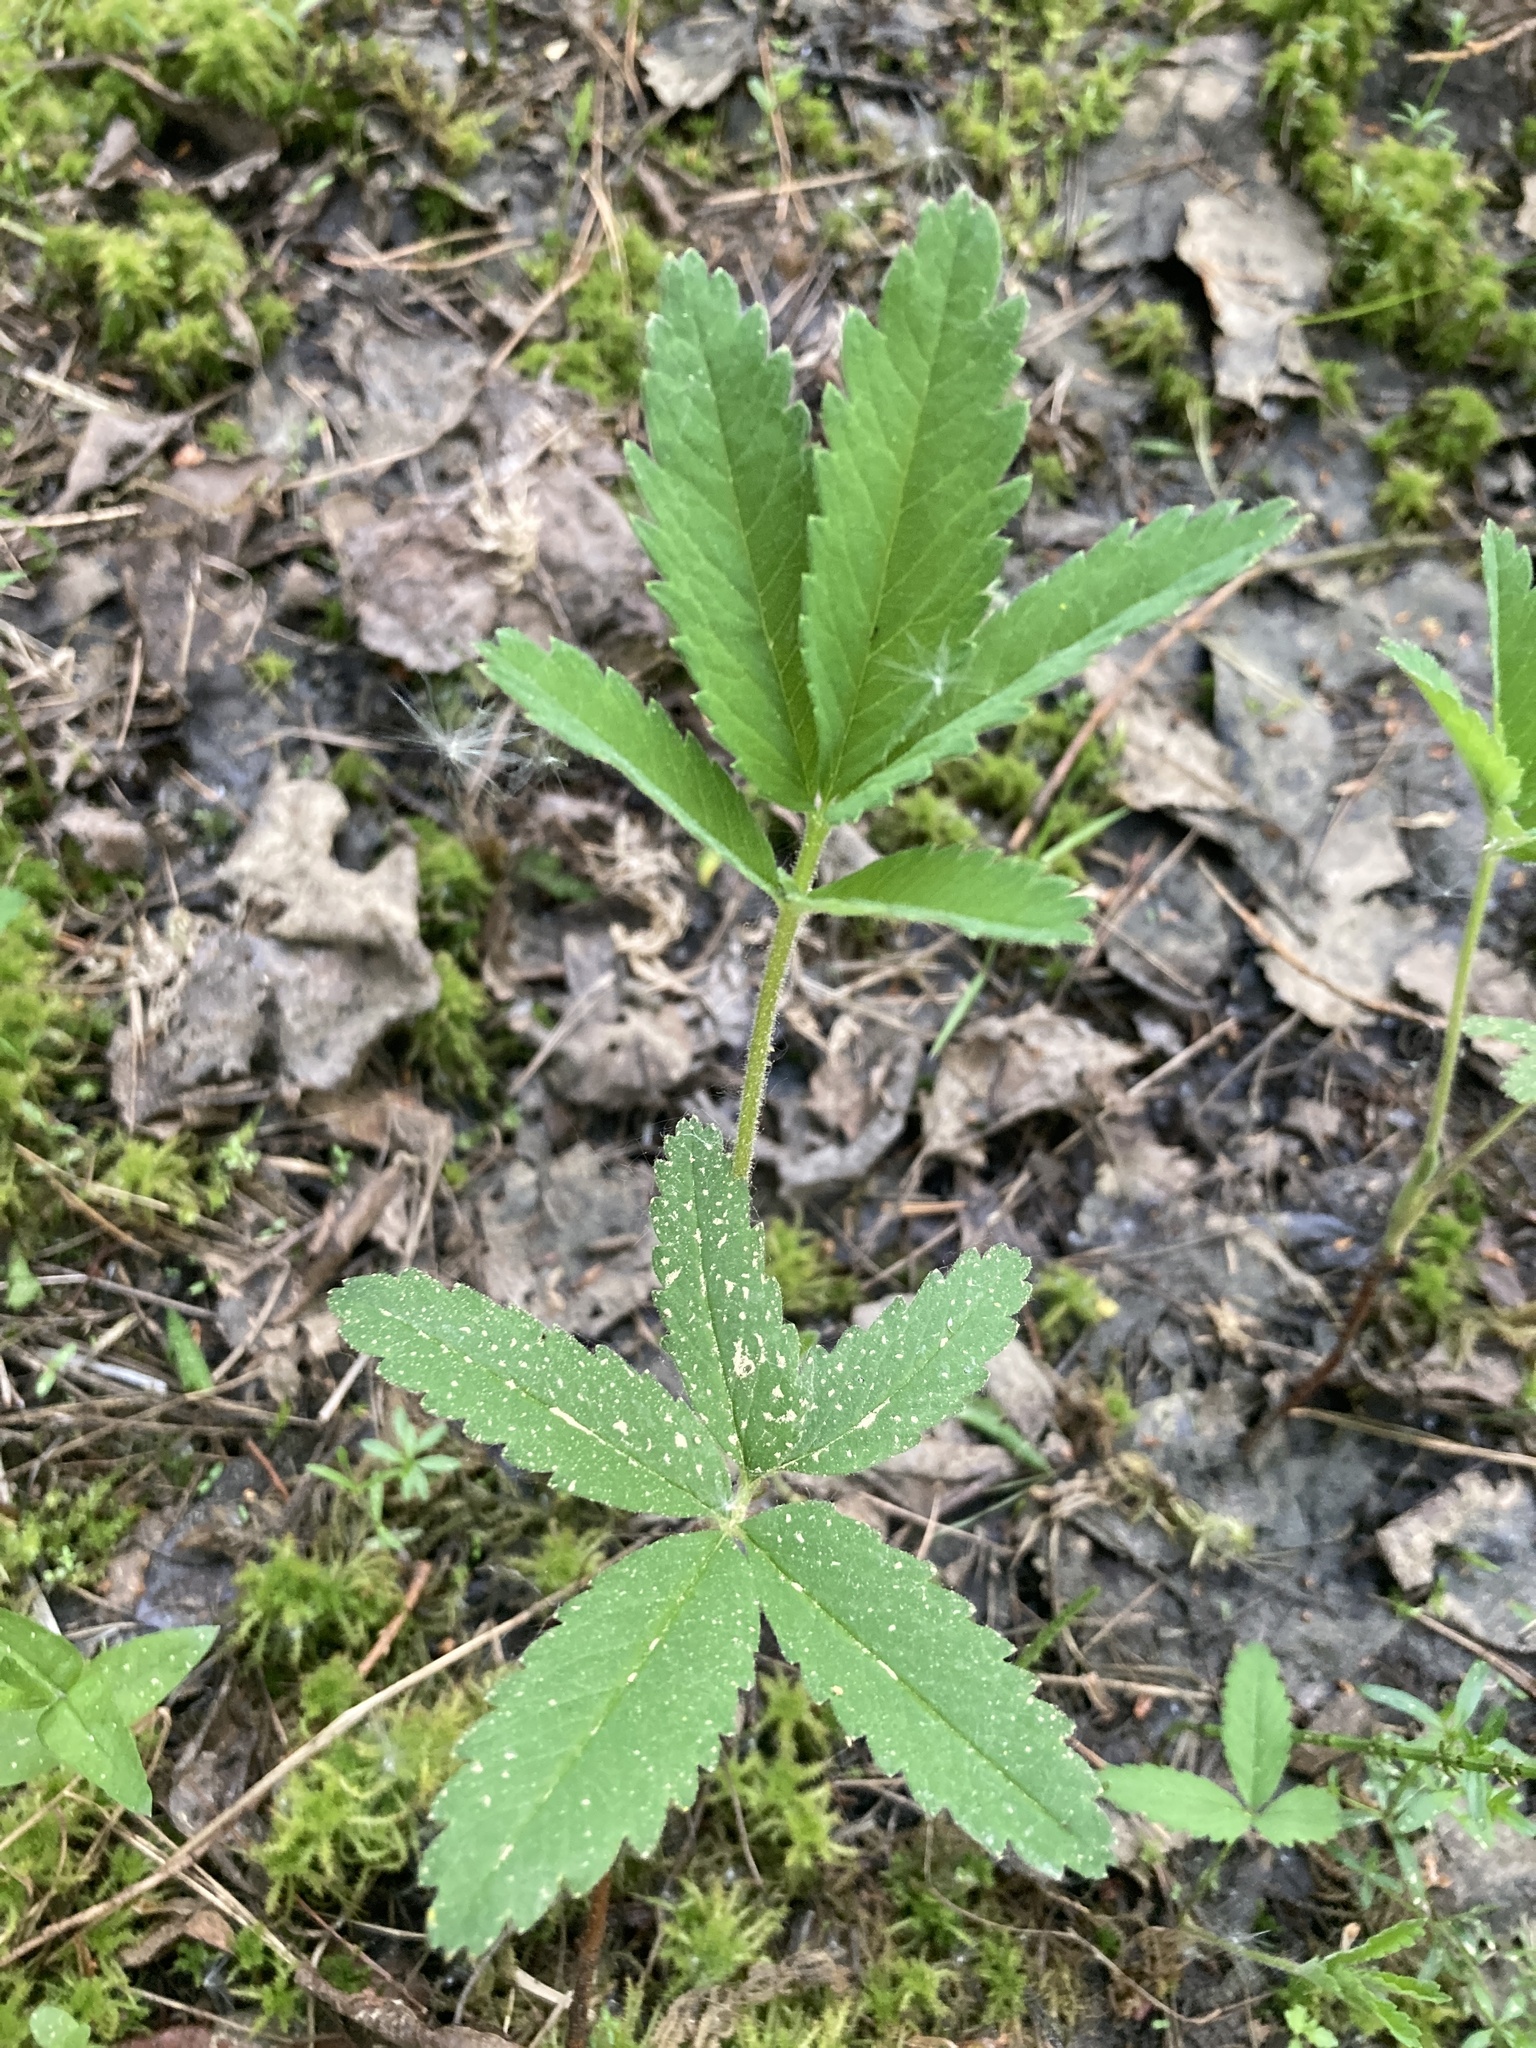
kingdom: Plantae
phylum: Tracheophyta
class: Magnoliopsida
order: Rosales
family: Rosaceae
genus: Comarum
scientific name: Comarum palustre
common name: Marsh cinquefoil
